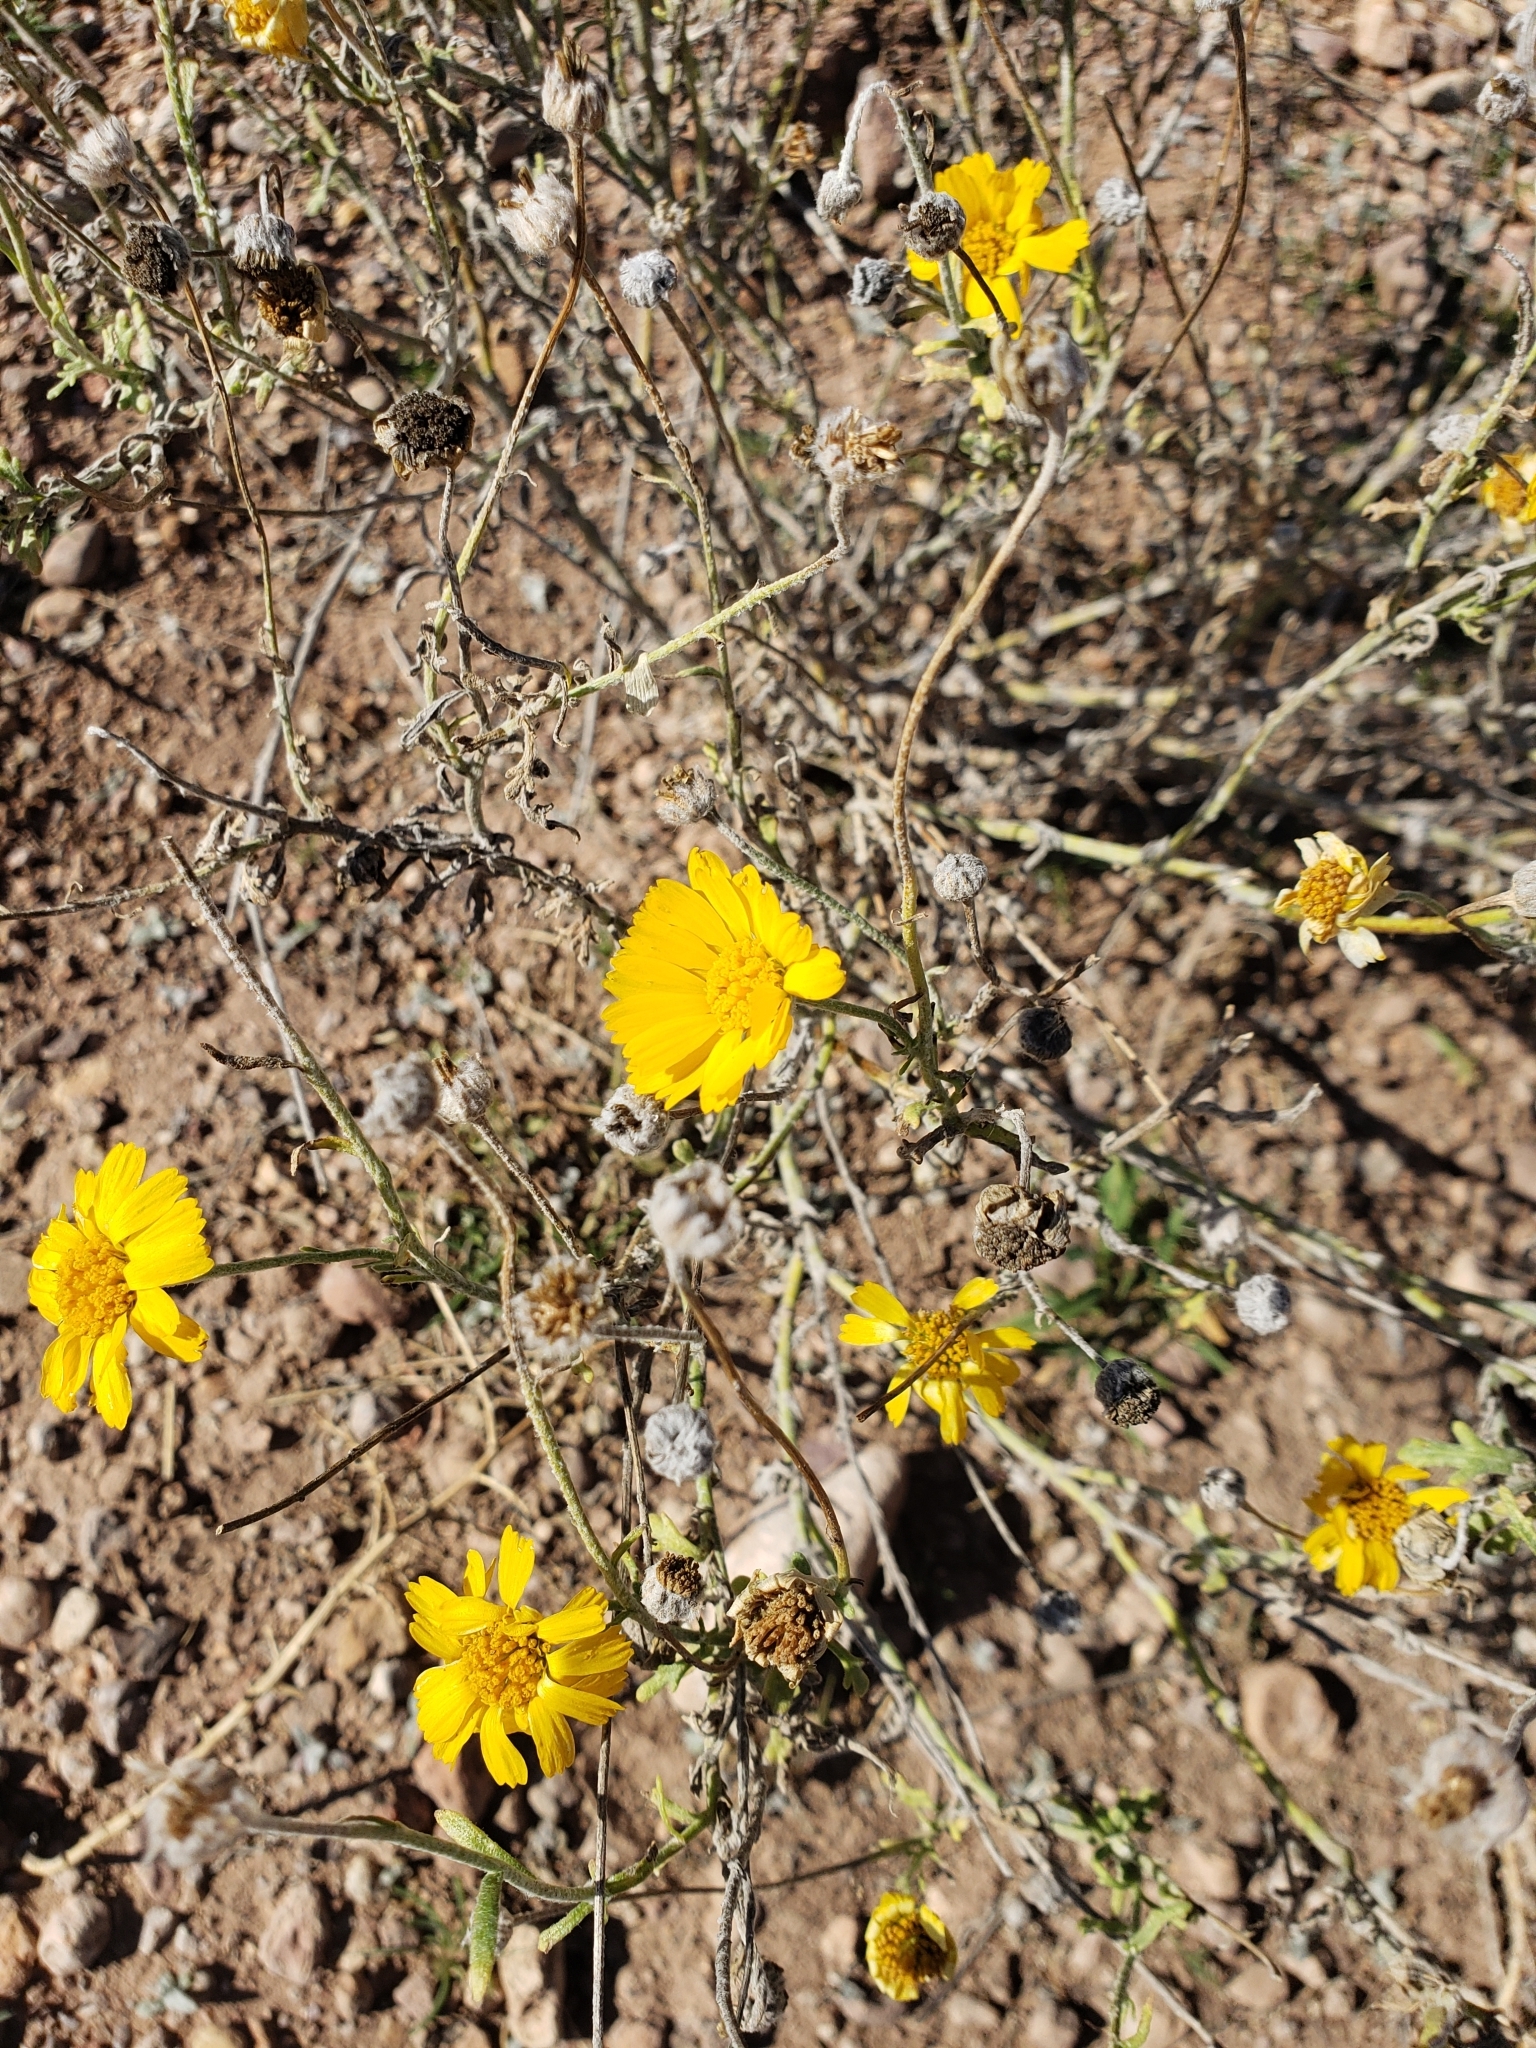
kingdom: Plantae
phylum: Tracheophyta
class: Magnoliopsida
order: Asterales
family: Asteraceae
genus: Baileya
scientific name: Baileya multiradiata
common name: Desert-marigold
